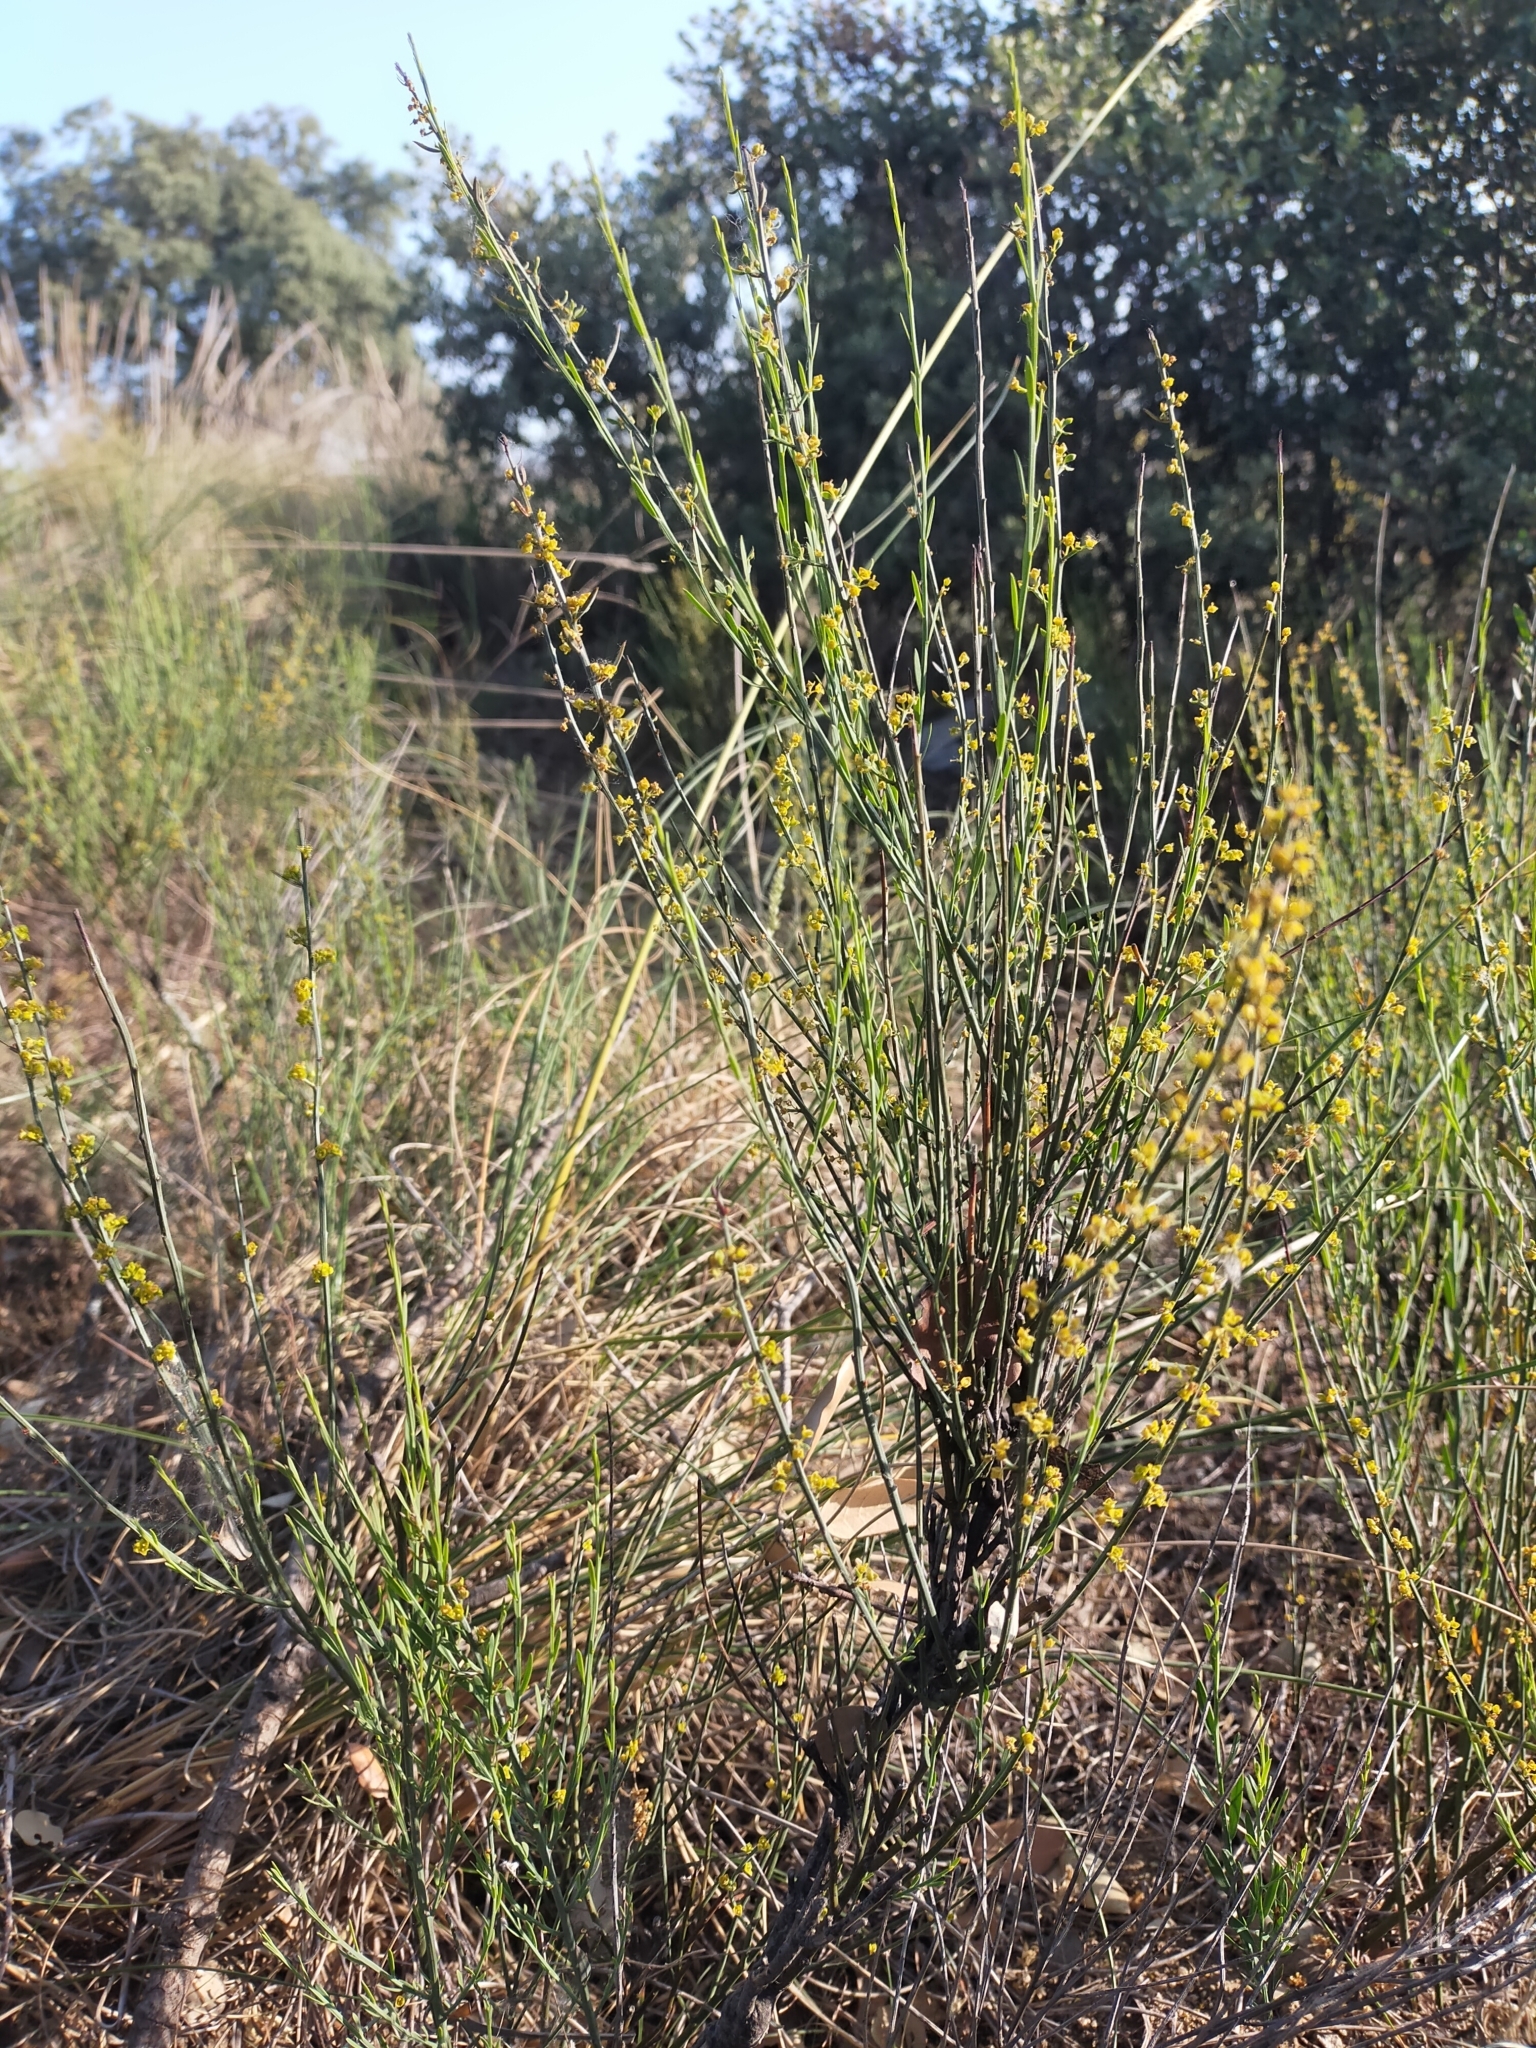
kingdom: Plantae
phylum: Tracheophyta
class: Magnoliopsida
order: Santalales
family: Santalaceae
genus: Osyris
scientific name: Osyris alba
